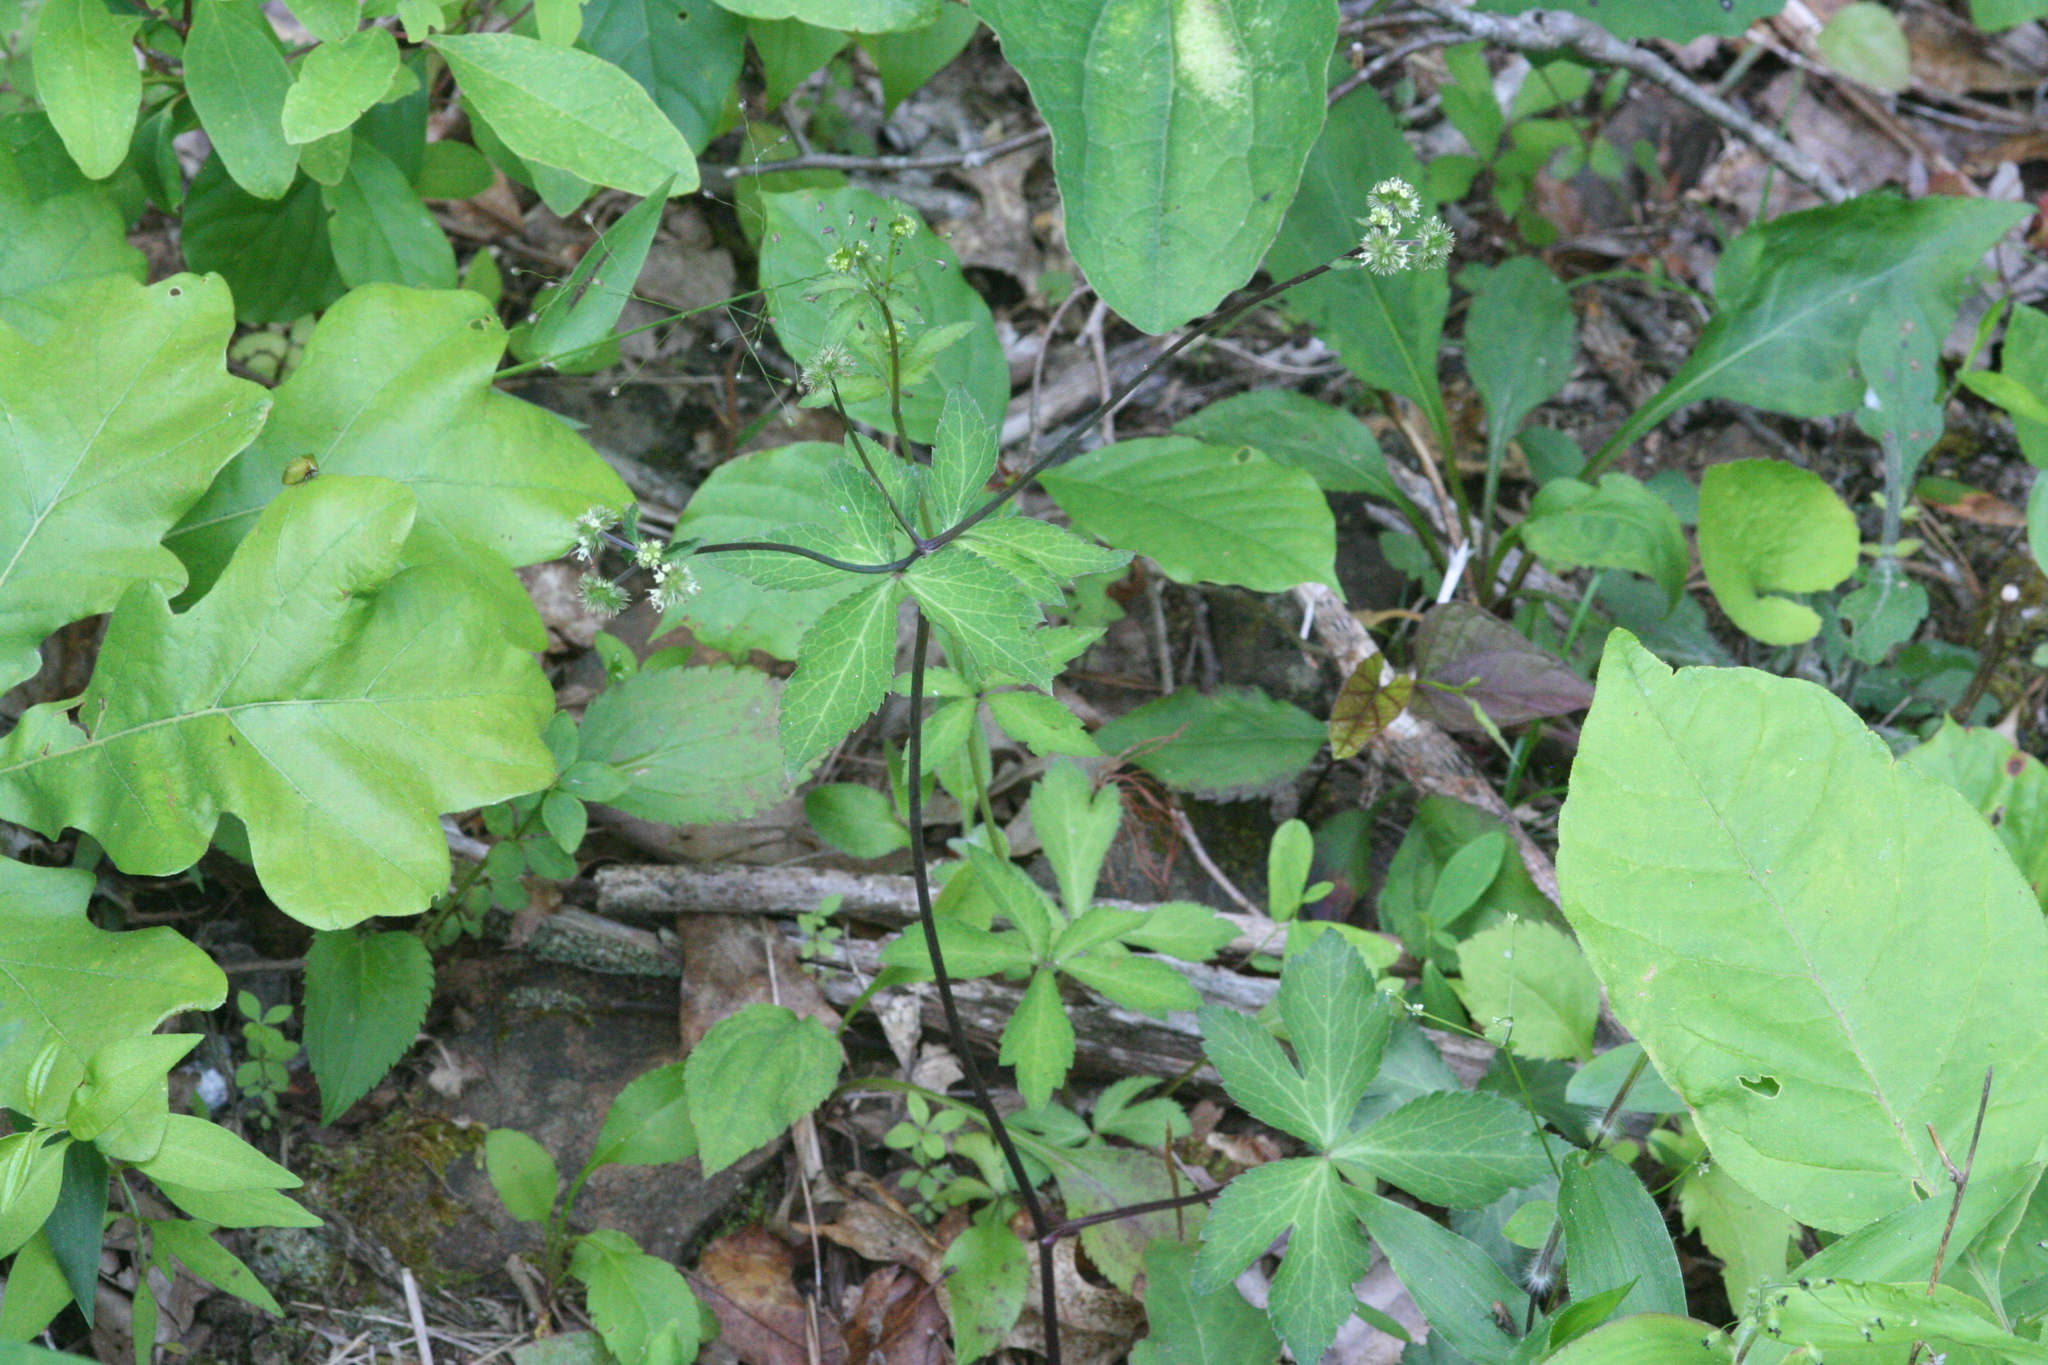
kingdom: Plantae
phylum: Tracheophyta
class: Magnoliopsida
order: Apiales
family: Apiaceae
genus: Sanicula
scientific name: Sanicula smallii
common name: Small's black snakeroot
